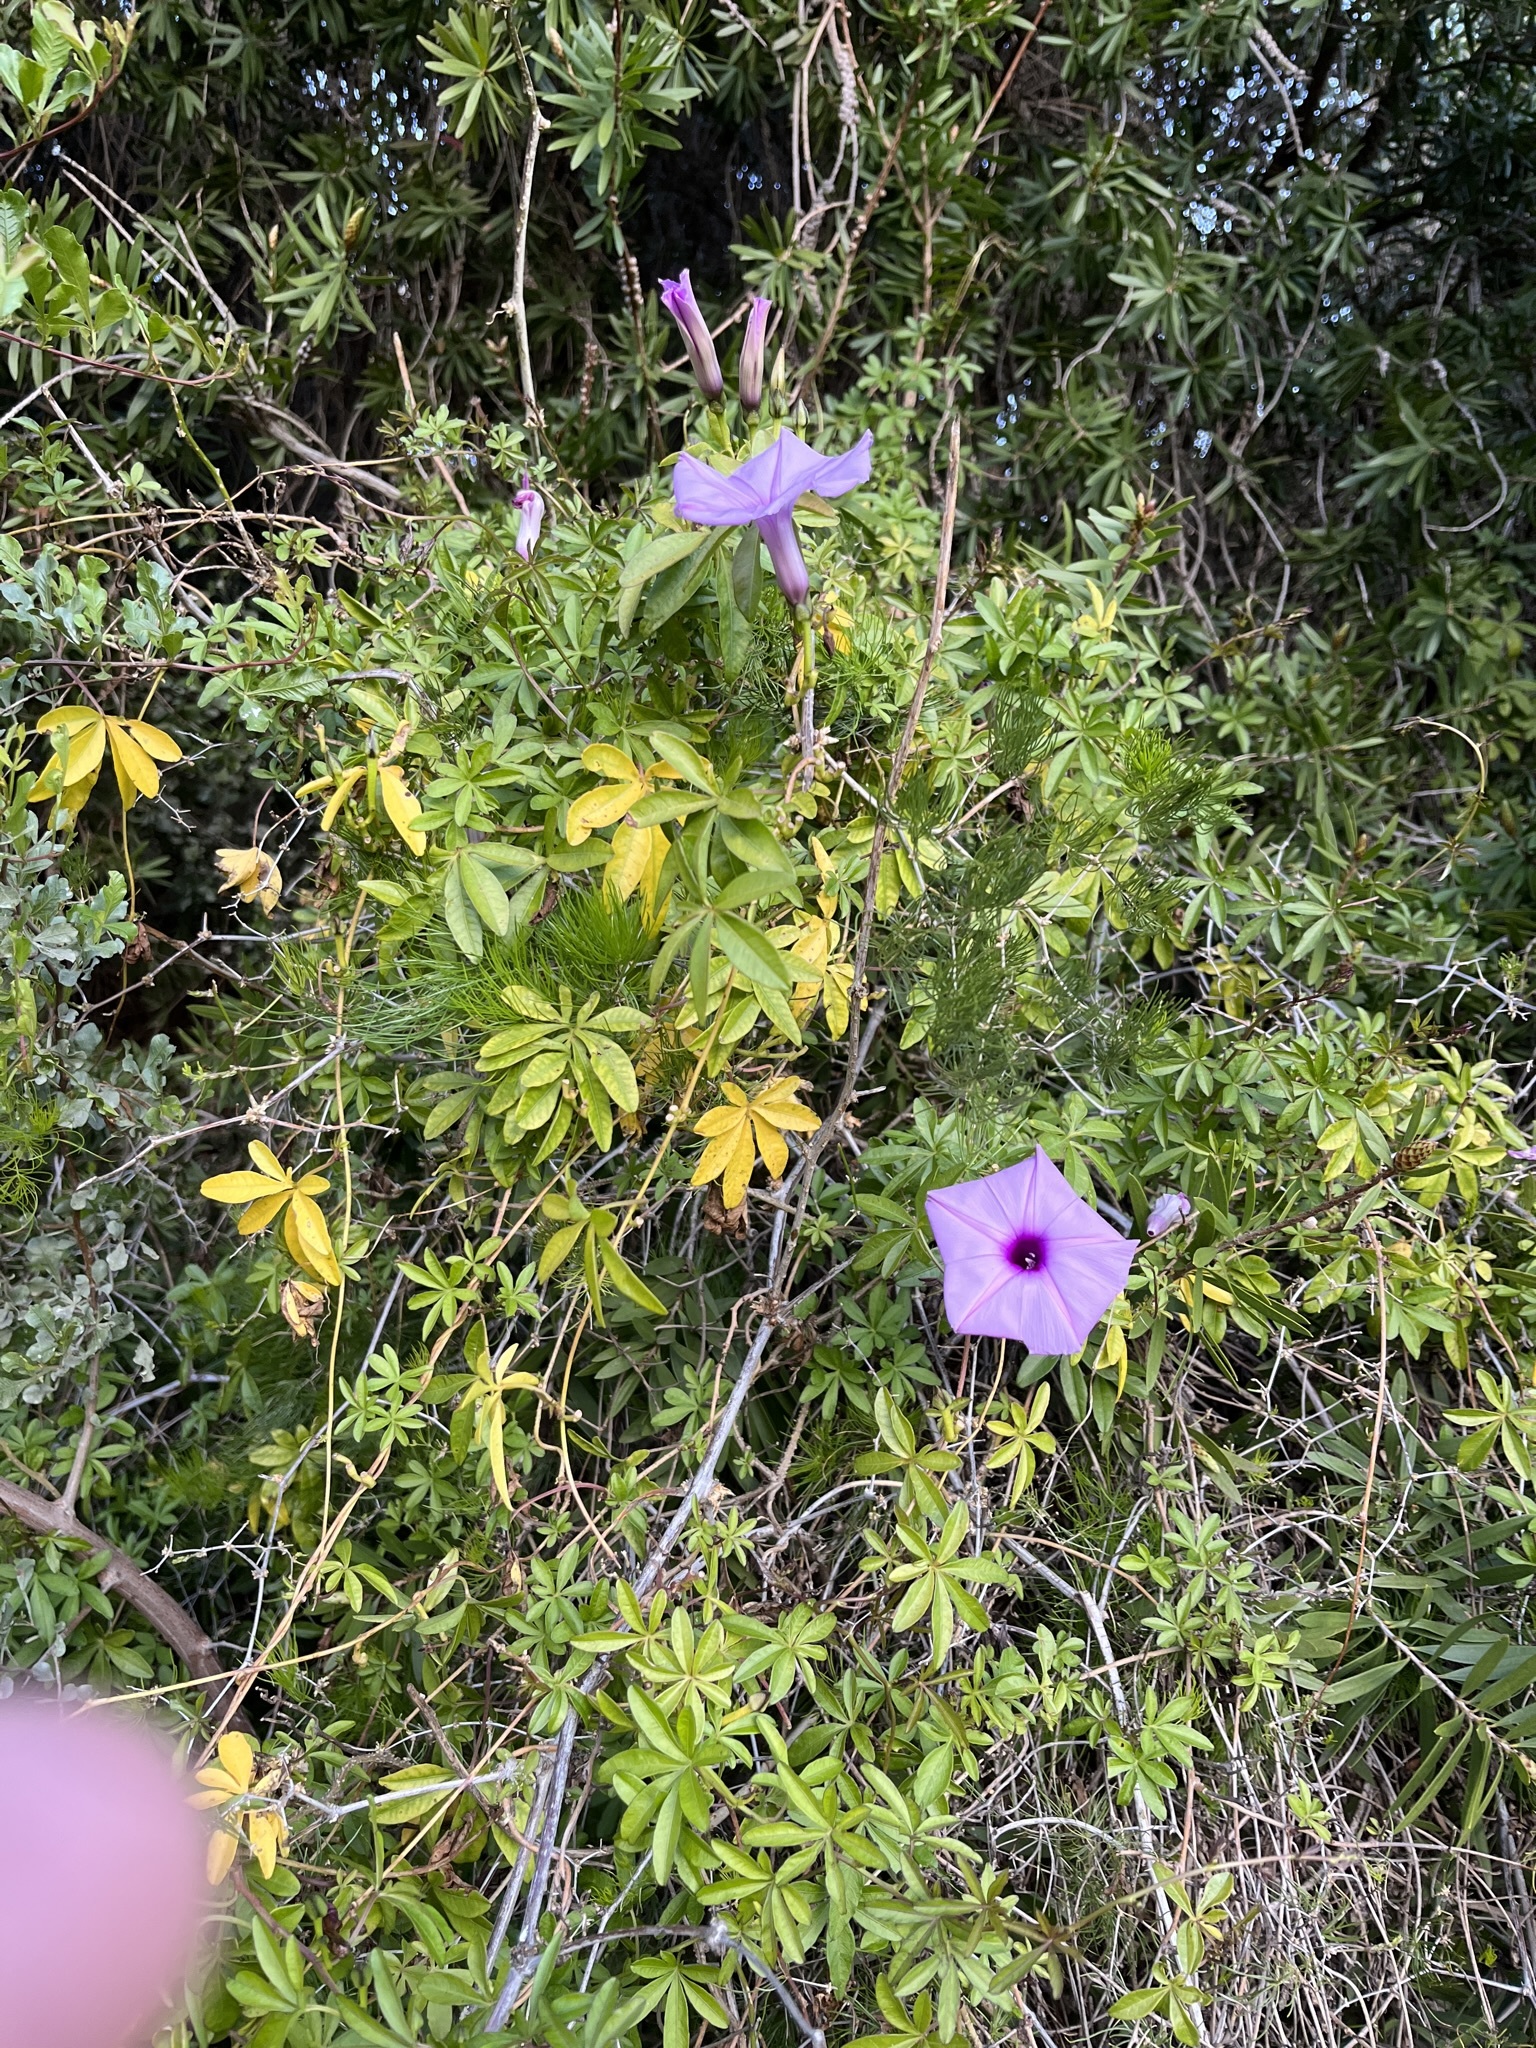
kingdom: Plantae
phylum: Tracheophyta
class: Magnoliopsida
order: Solanales
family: Convolvulaceae
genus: Ipomoea
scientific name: Ipomoea cairica
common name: Mile a minute vine
